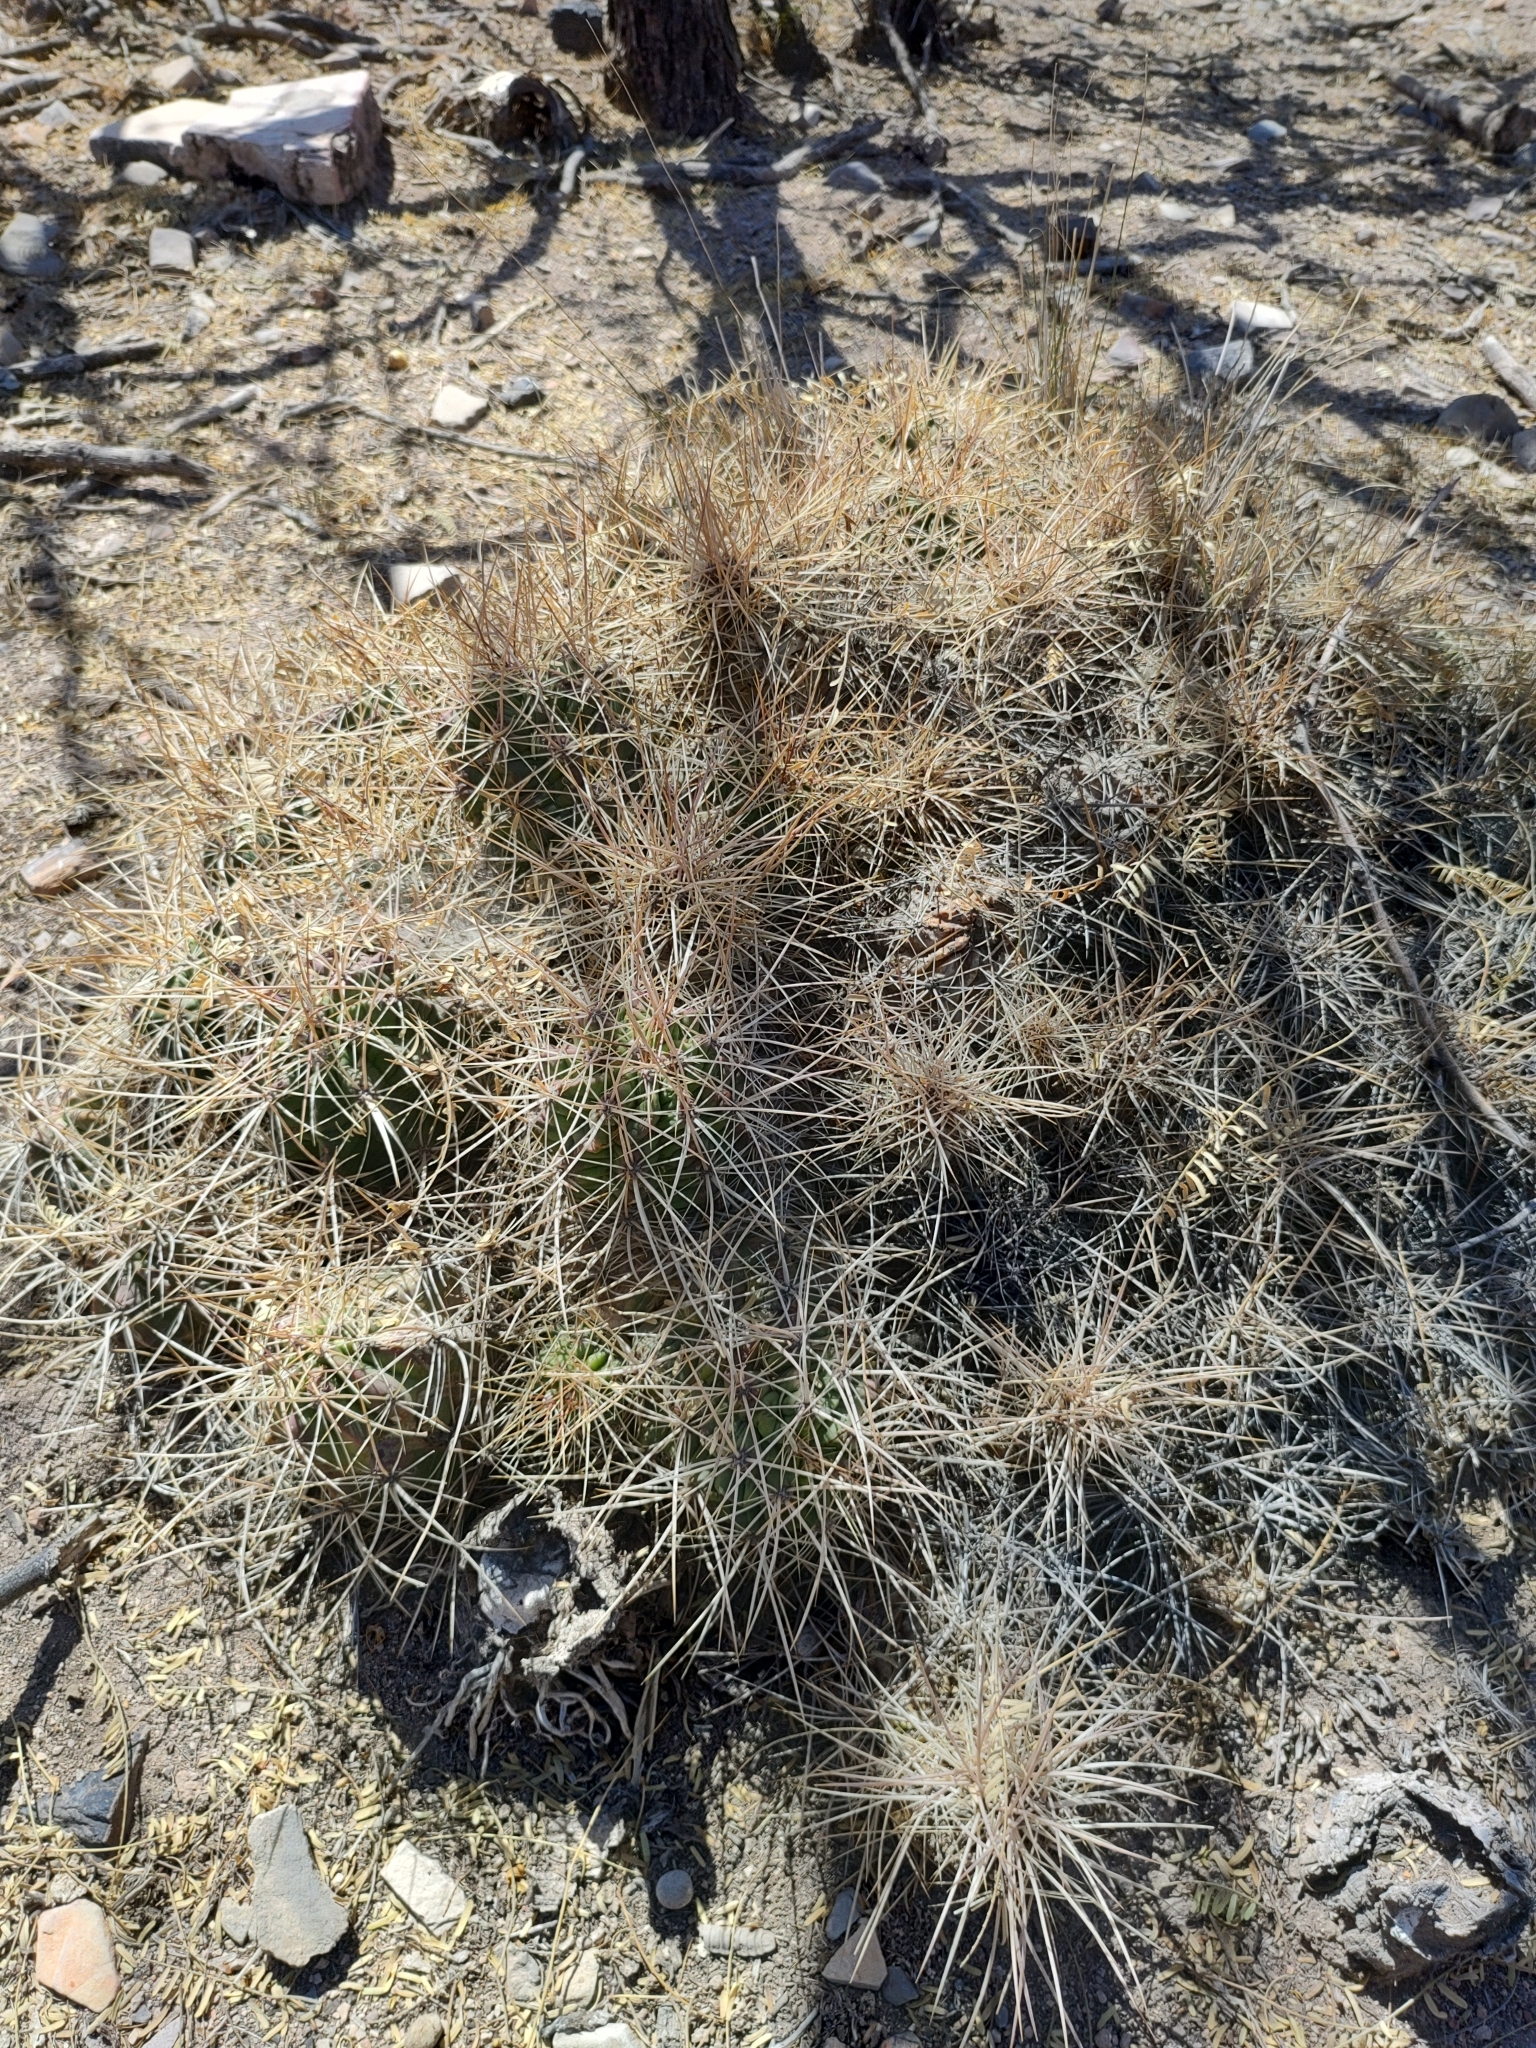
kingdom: Plantae
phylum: Tracheophyta
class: Magnoliopsida
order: Caryophyllales
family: Cactaceae
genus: Echinocereus
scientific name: Echinocereus enneacanthus
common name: Pitaya
